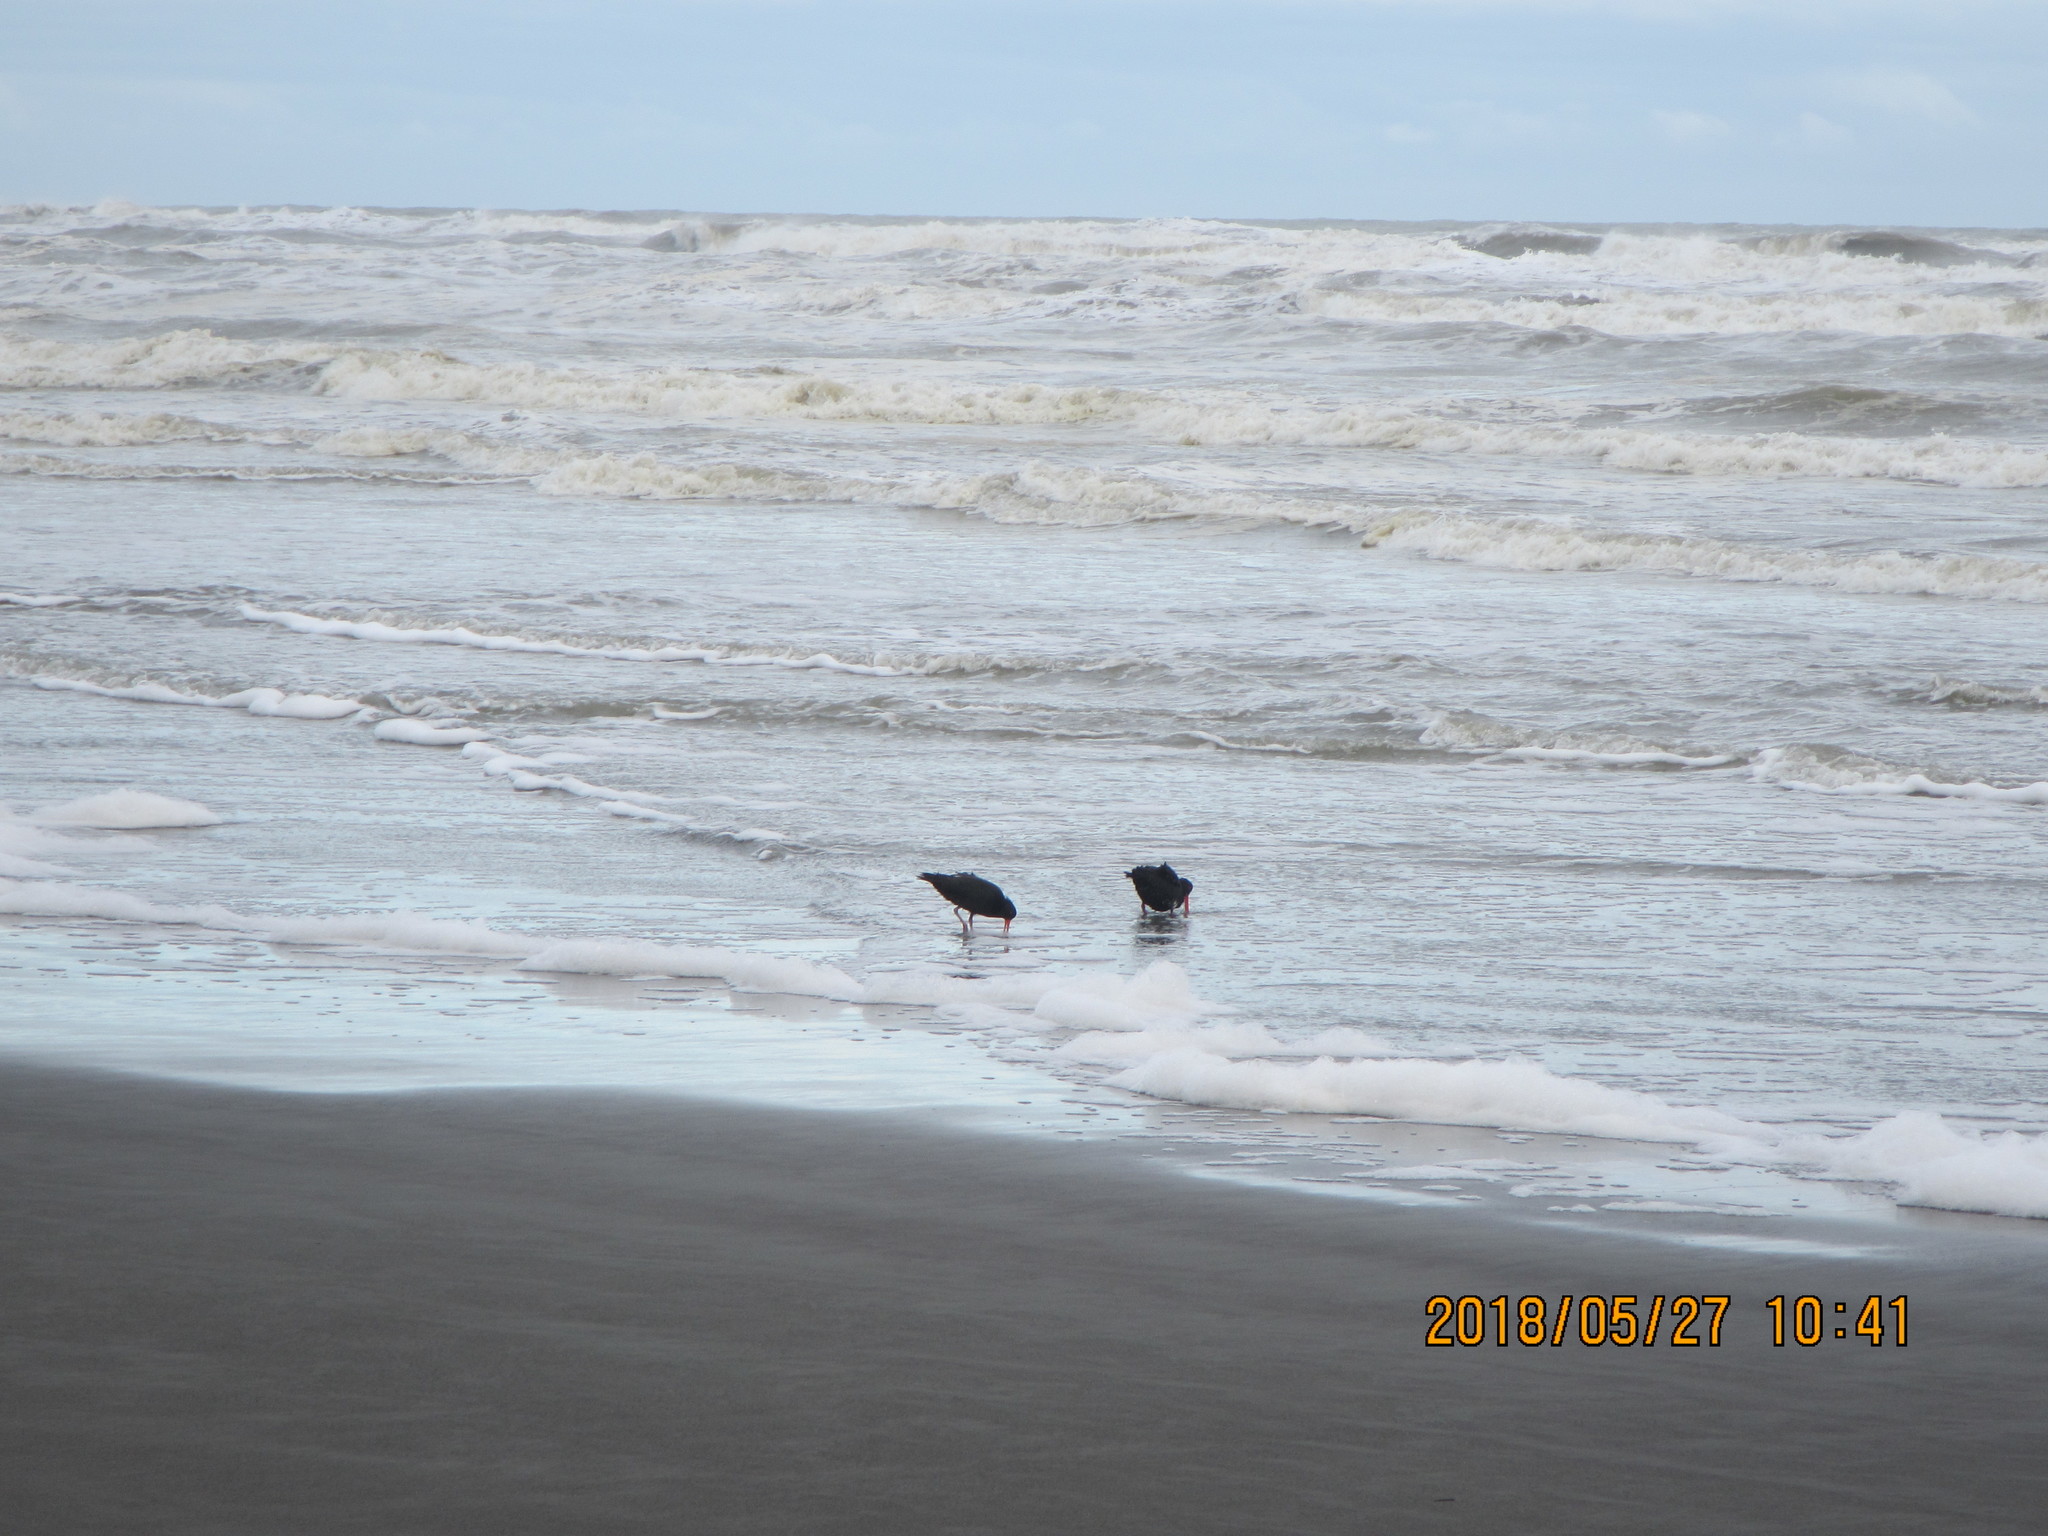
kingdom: Animalia
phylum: Chordata
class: Aves
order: Charadriiformes
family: Haematopodidae
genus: Haematopus
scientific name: Haematopus unicolor
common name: Variable oystercatcher
